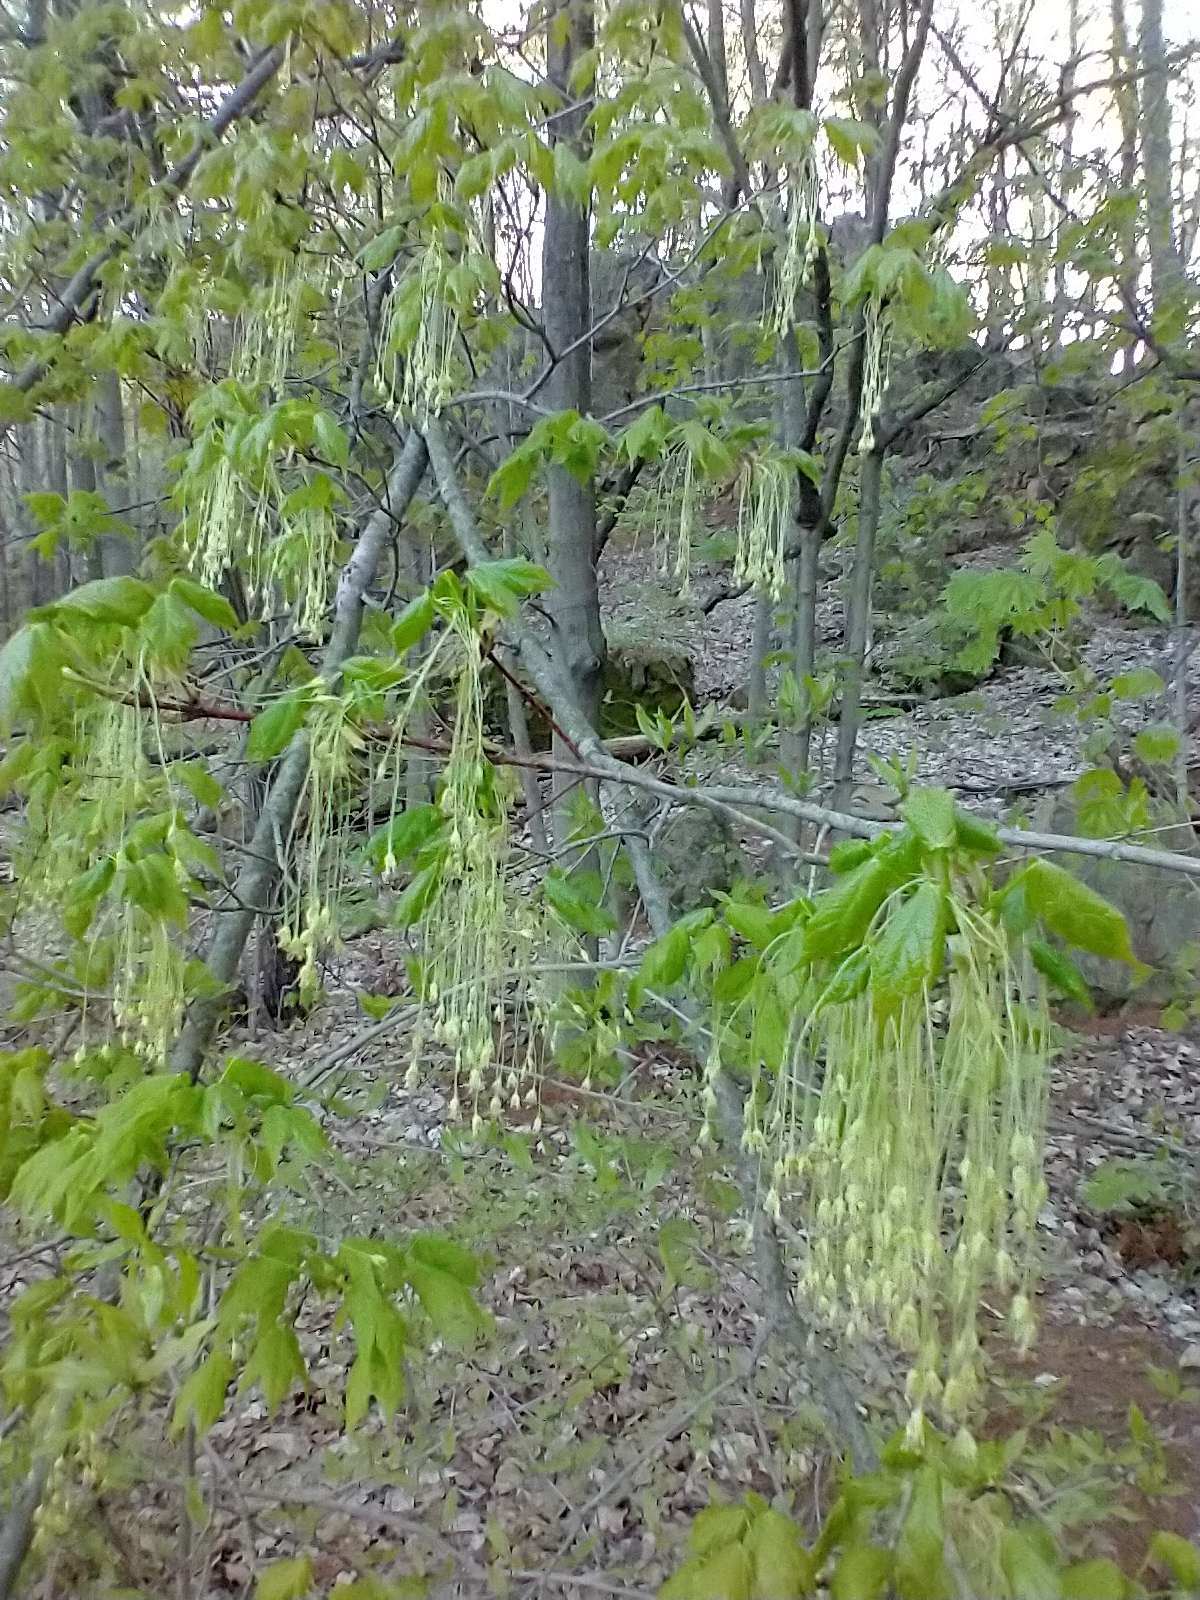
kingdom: Plantae
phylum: Tracheophyta
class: Magnoliopsida
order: Sapindales
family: Sapindaceae
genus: Acer
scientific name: Acer saccharum
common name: Sugar maple
